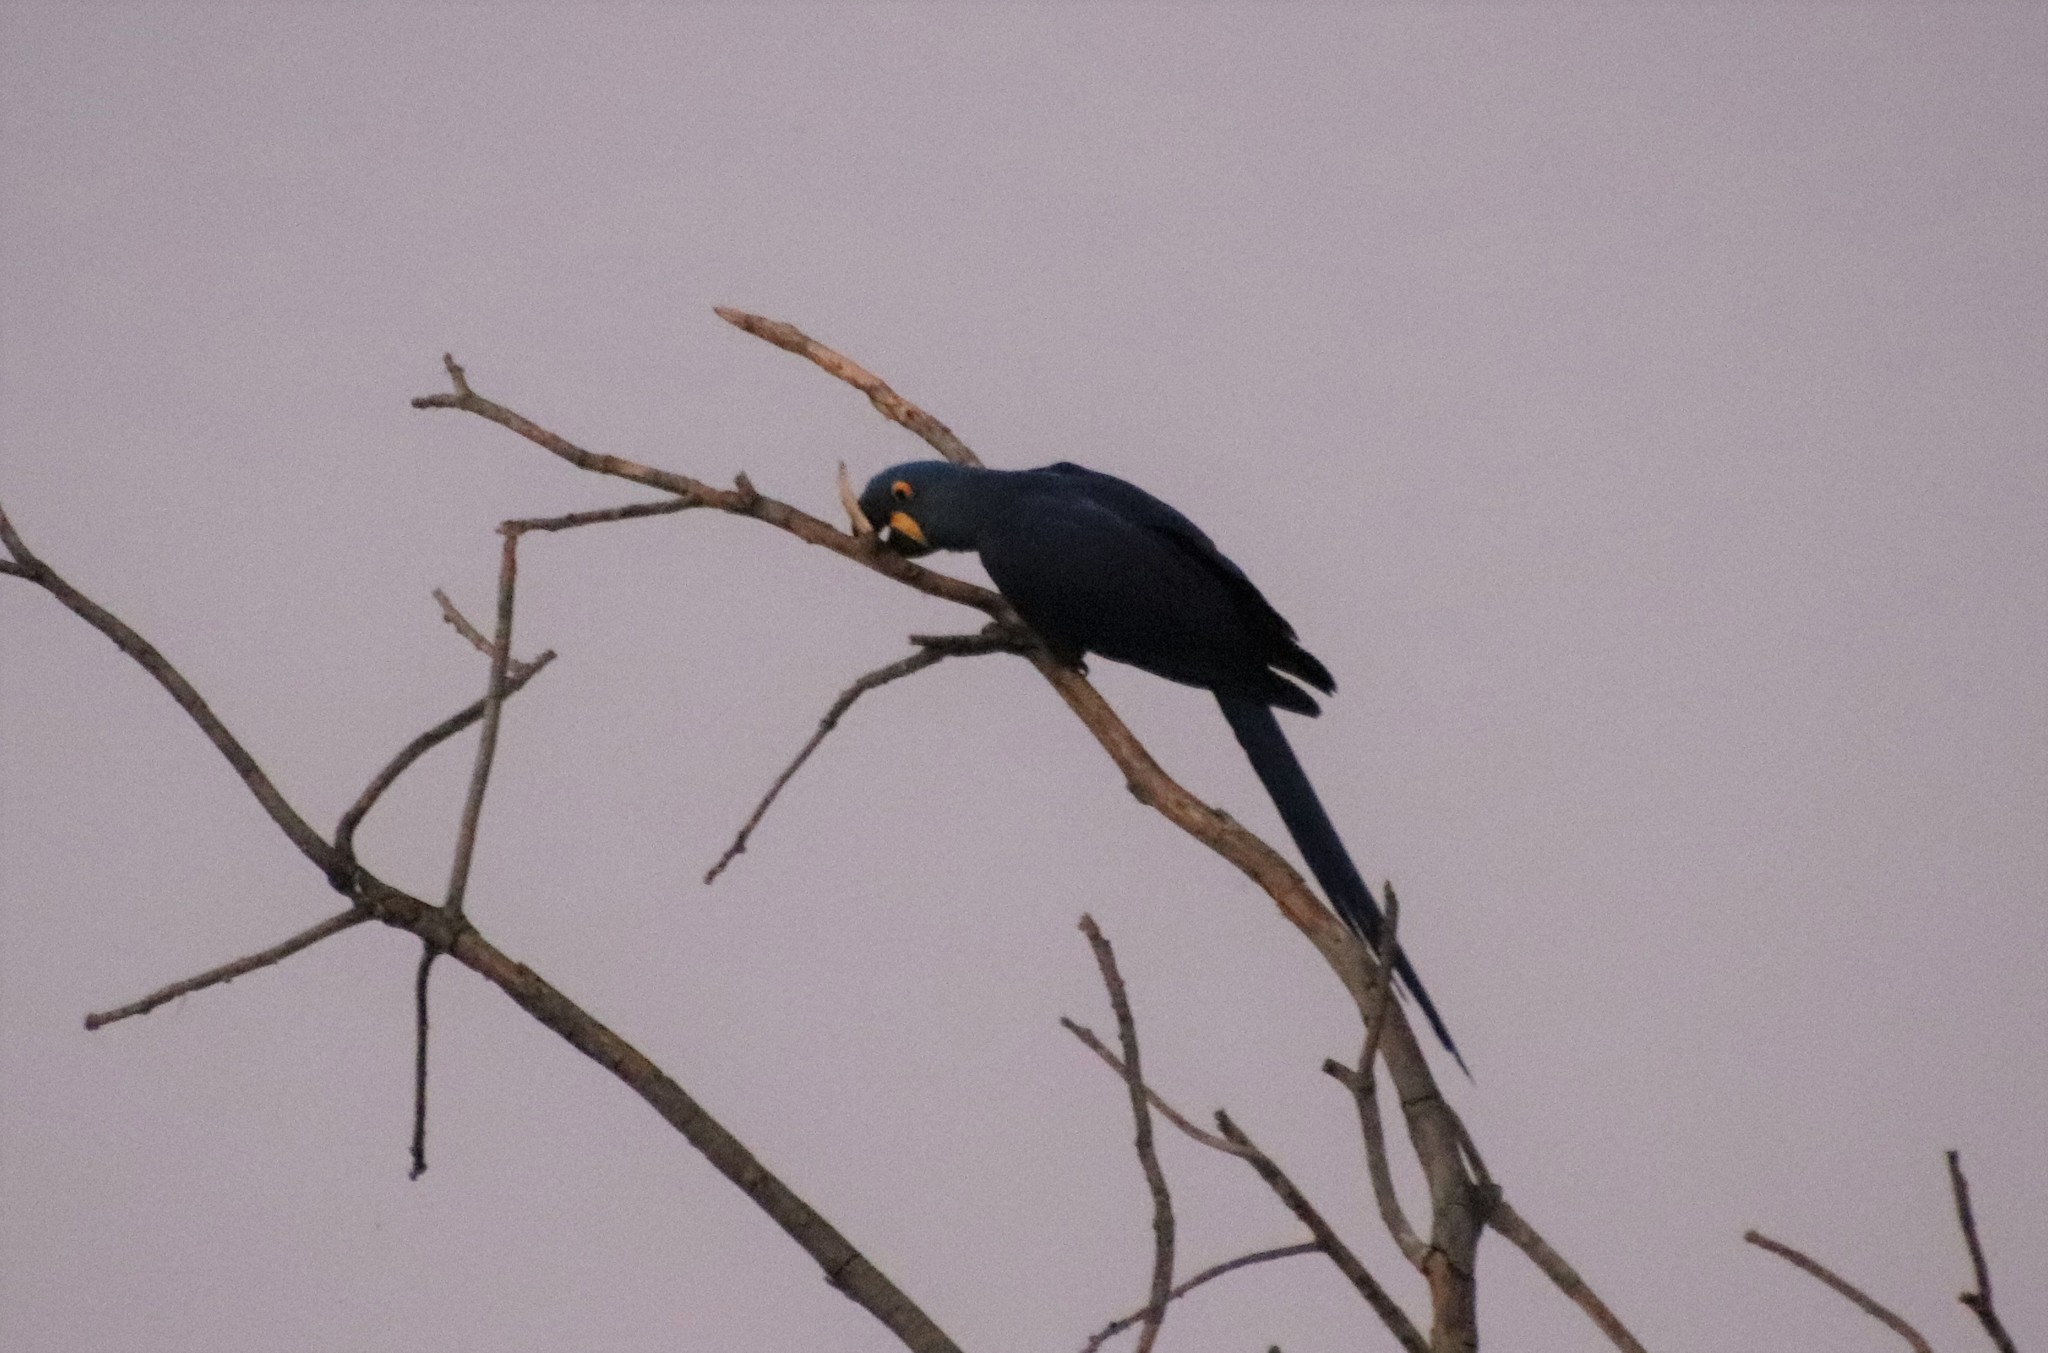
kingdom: Animalia
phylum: Chordata
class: Aves
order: Psittaciformes
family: Psittacidae
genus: Anodorhynchus
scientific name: Anodorhynchus hyacinthinus
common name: Hyacinth macaw
